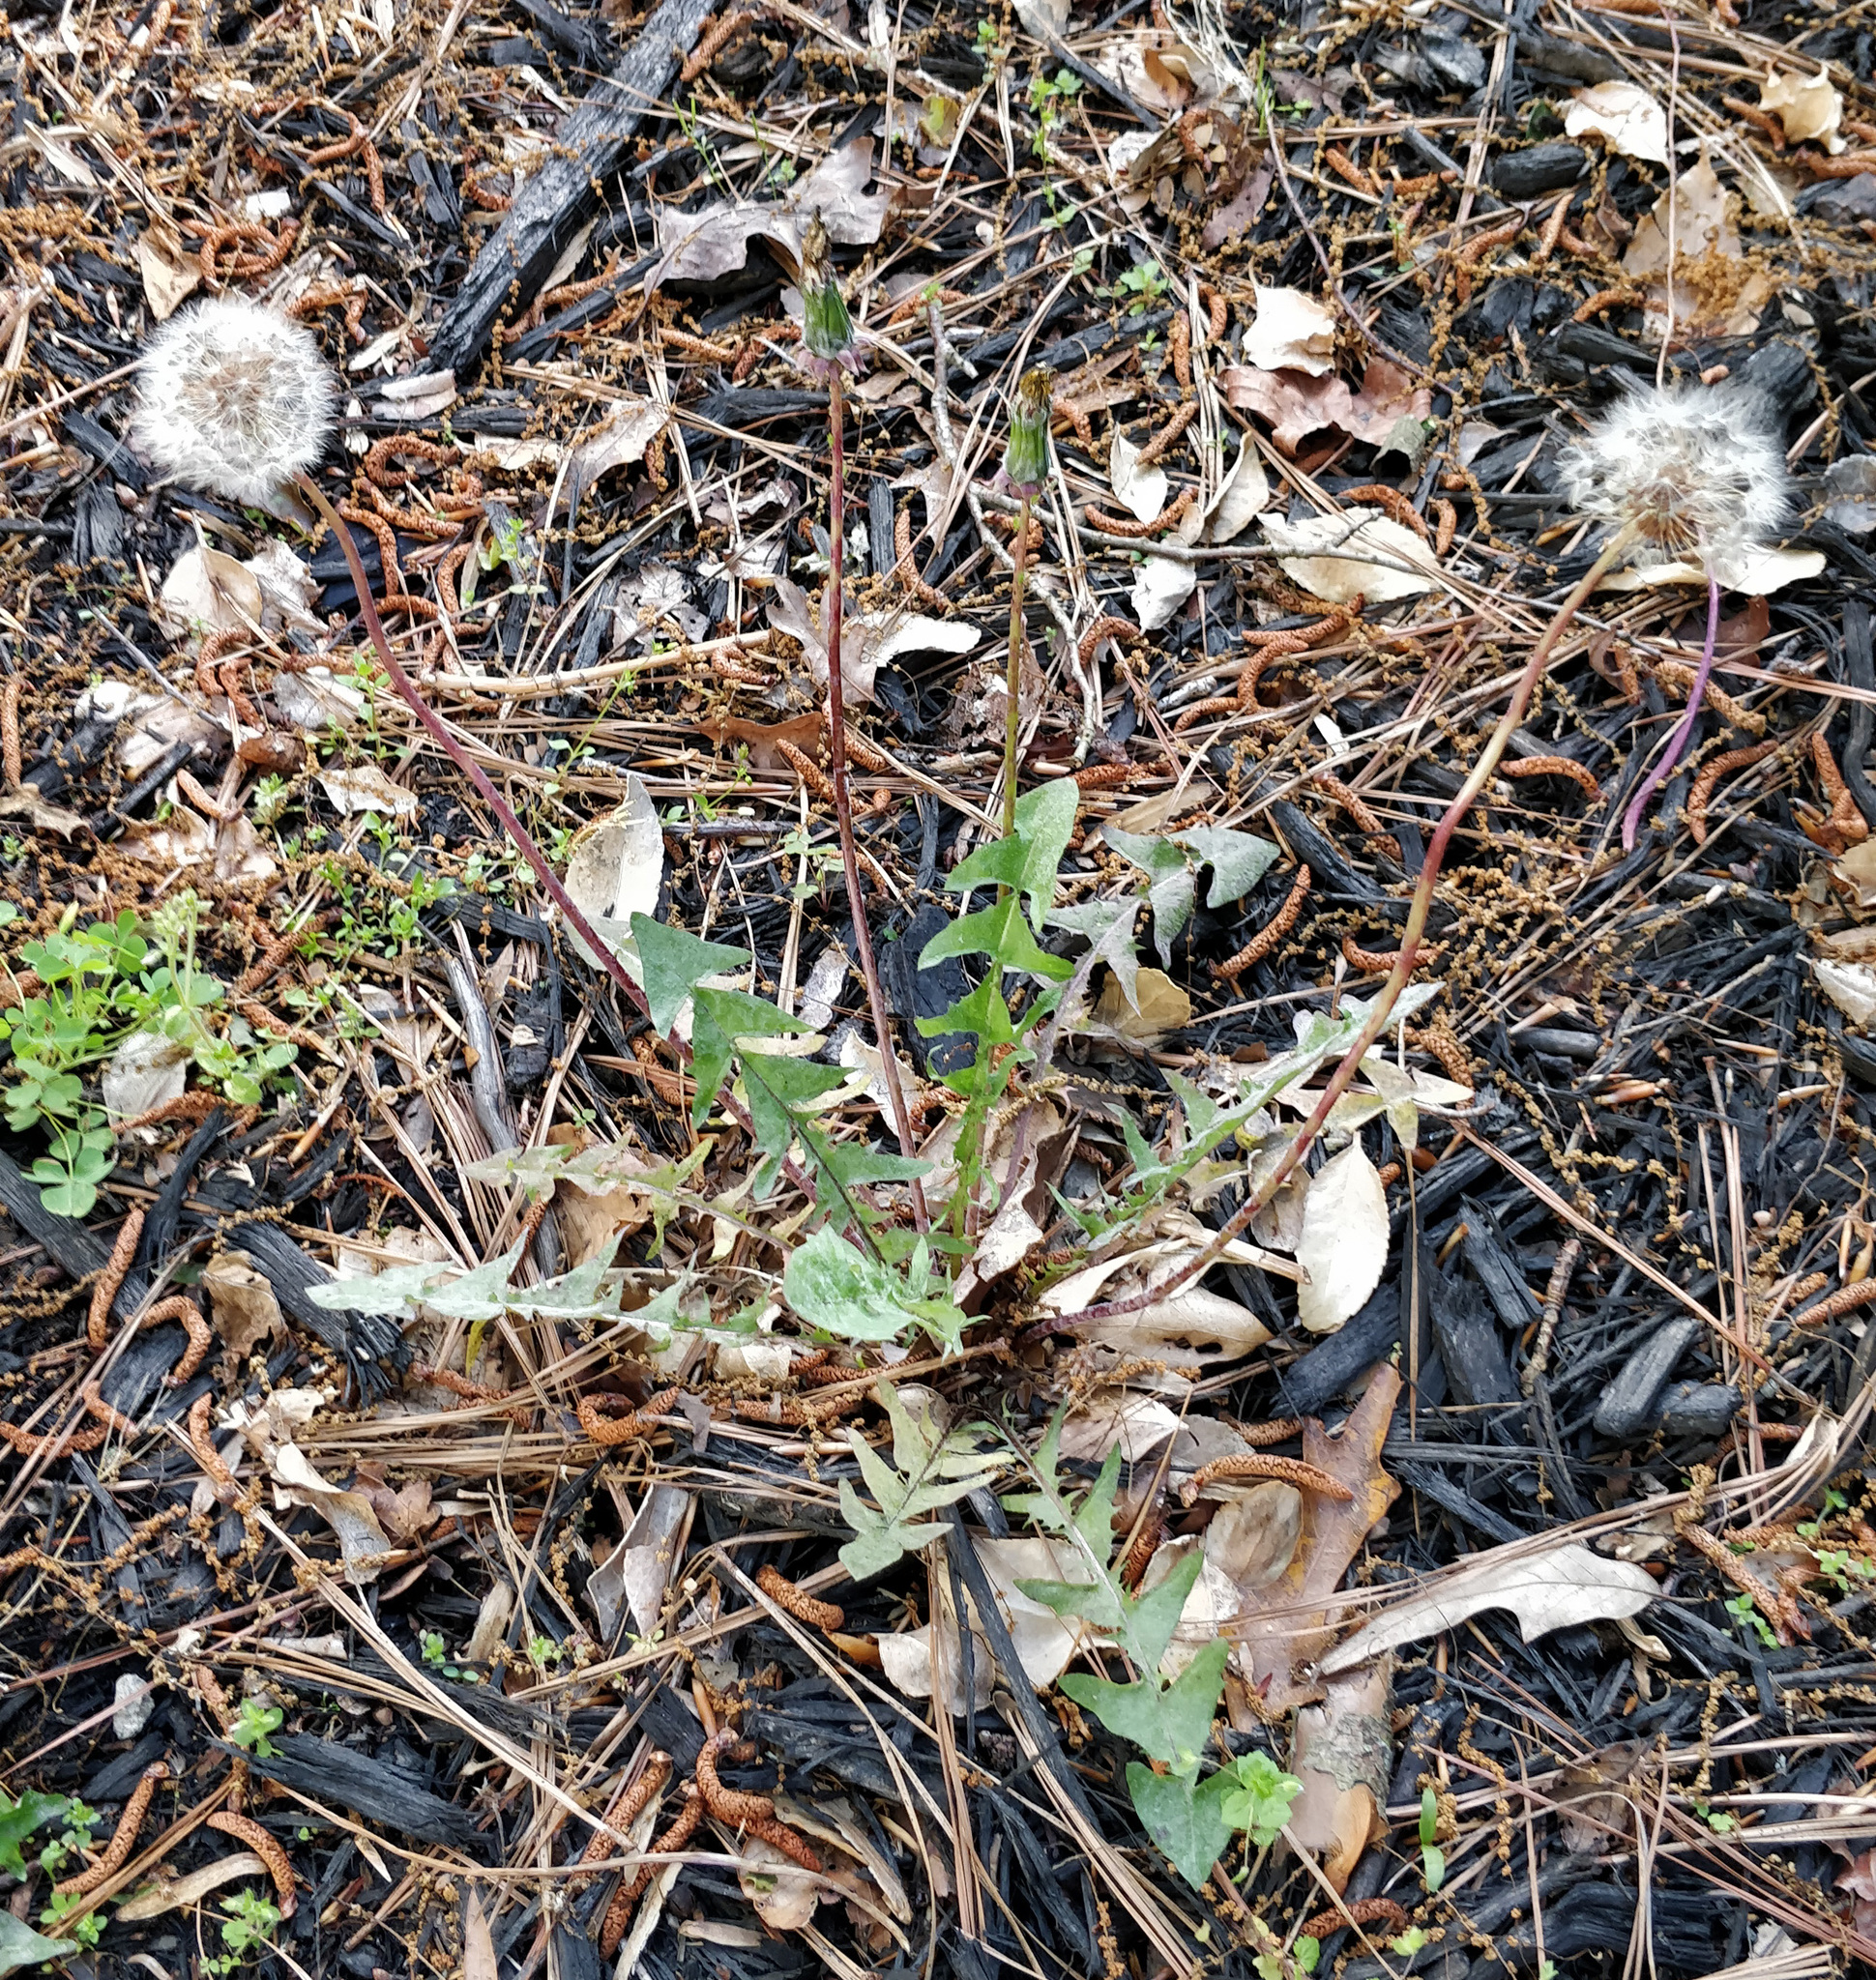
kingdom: Plantae
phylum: Tracheophyta
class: Magnoliopsida
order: Asterales
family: Asteraceae
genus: Taraxacum
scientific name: Taraxacum officinale
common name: Common dandelion
